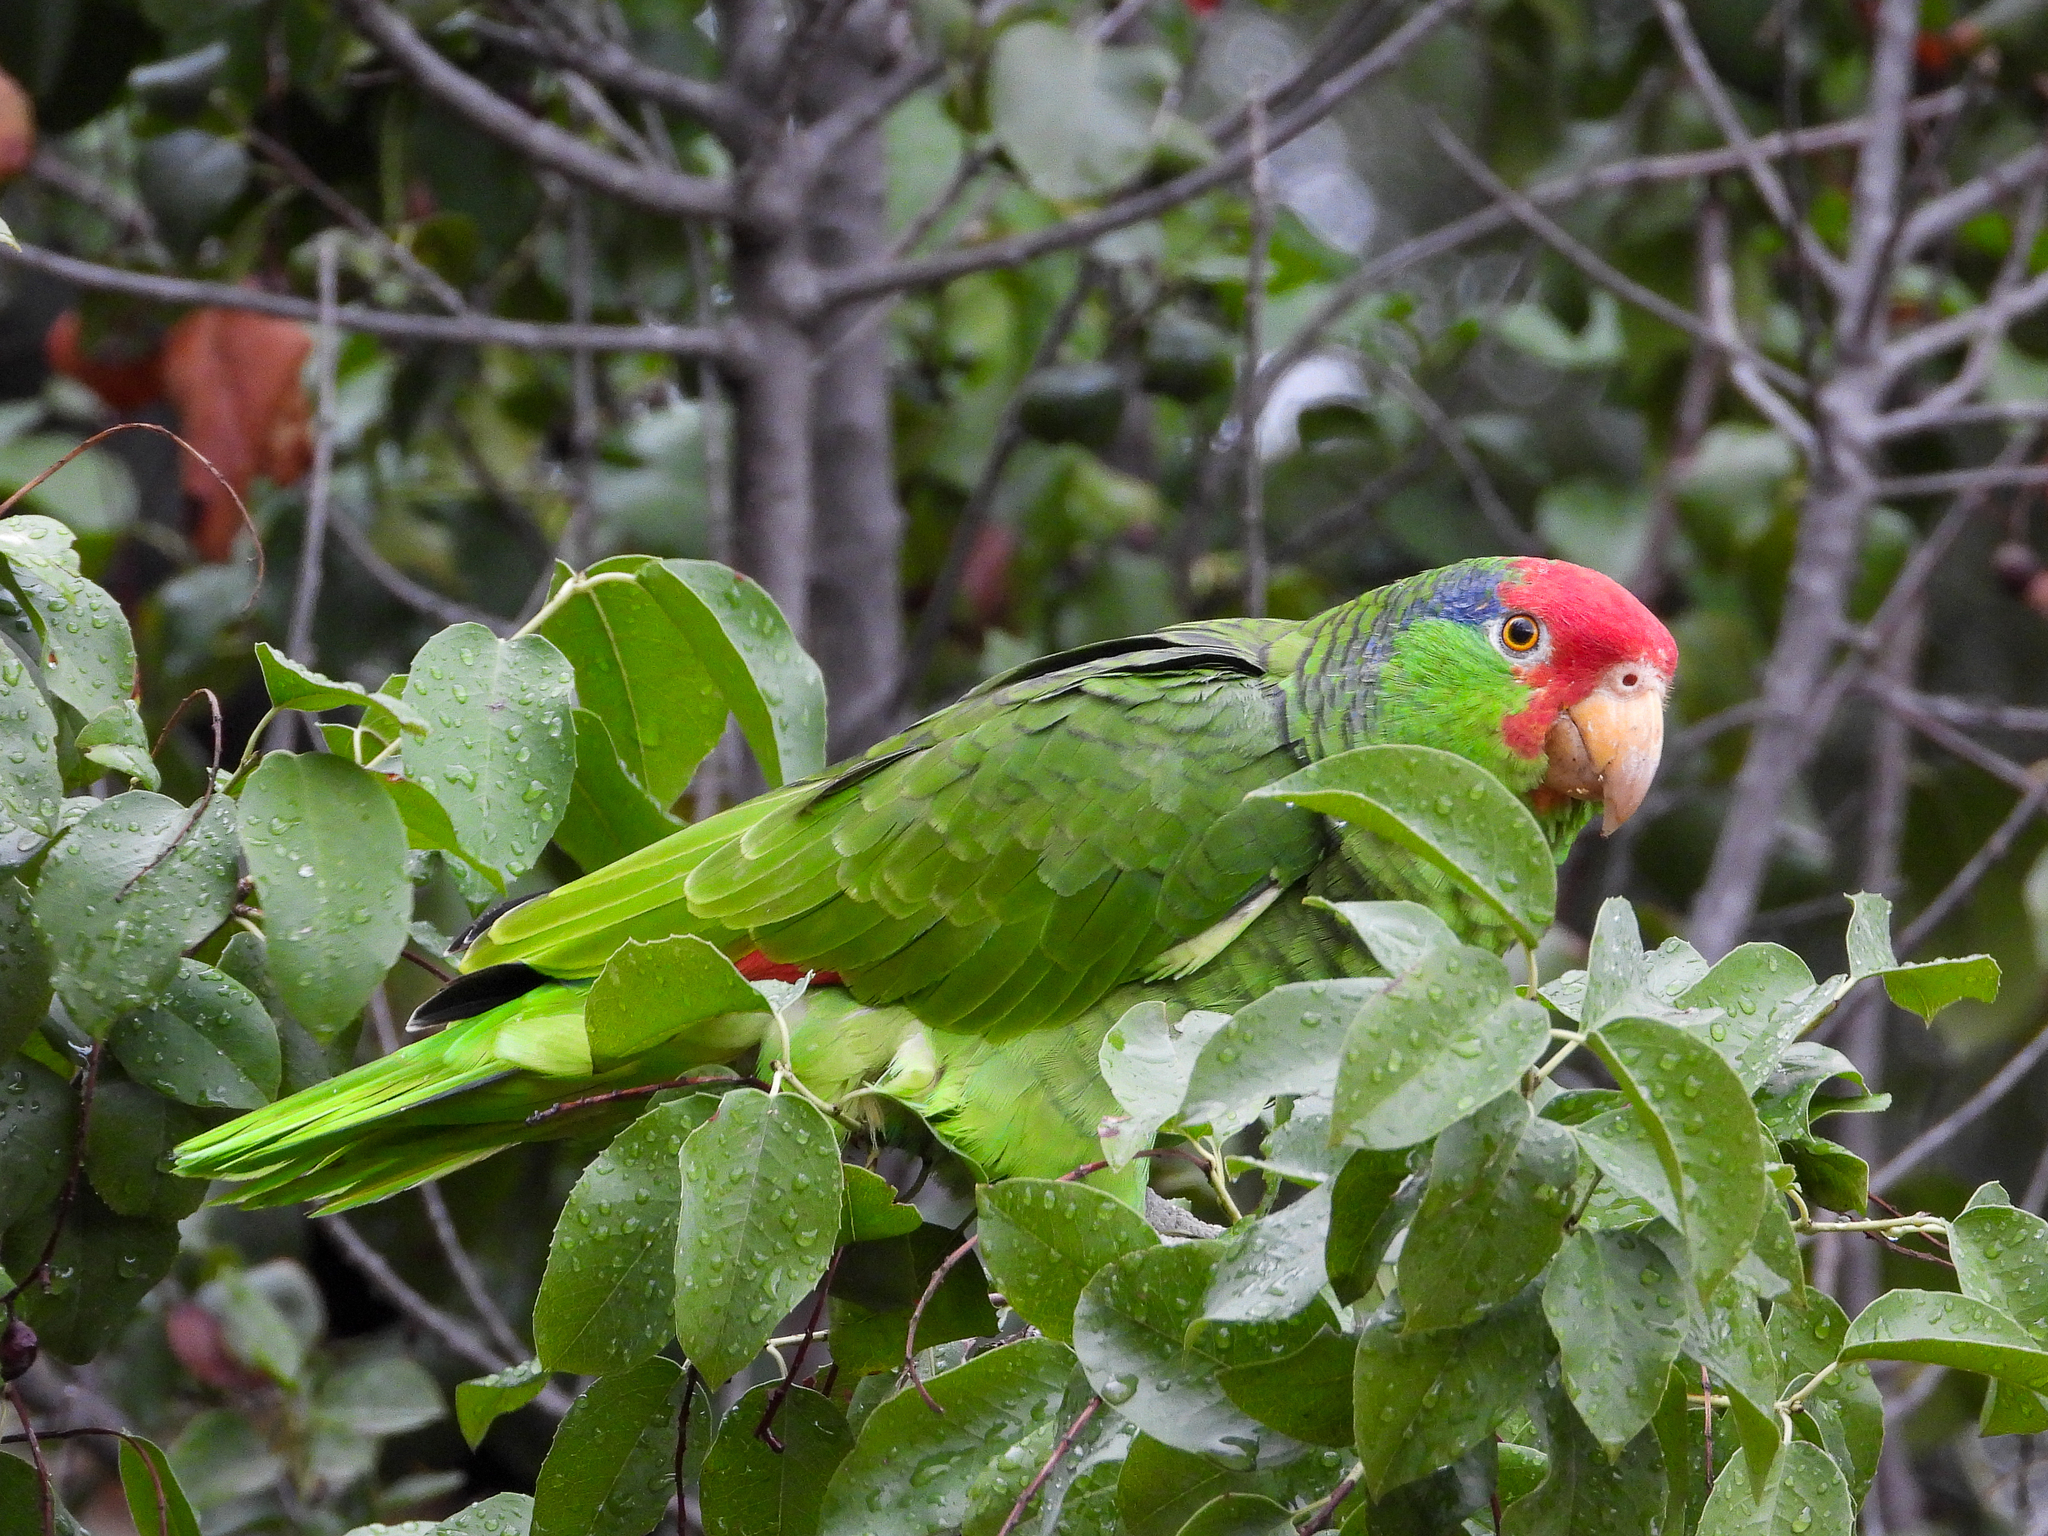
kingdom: Animalia
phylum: Chordata
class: Aves
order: Psittaciformes
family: Psittacidae
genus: Amazona
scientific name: Amazona viridigenalis
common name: Red-crowned amazon
